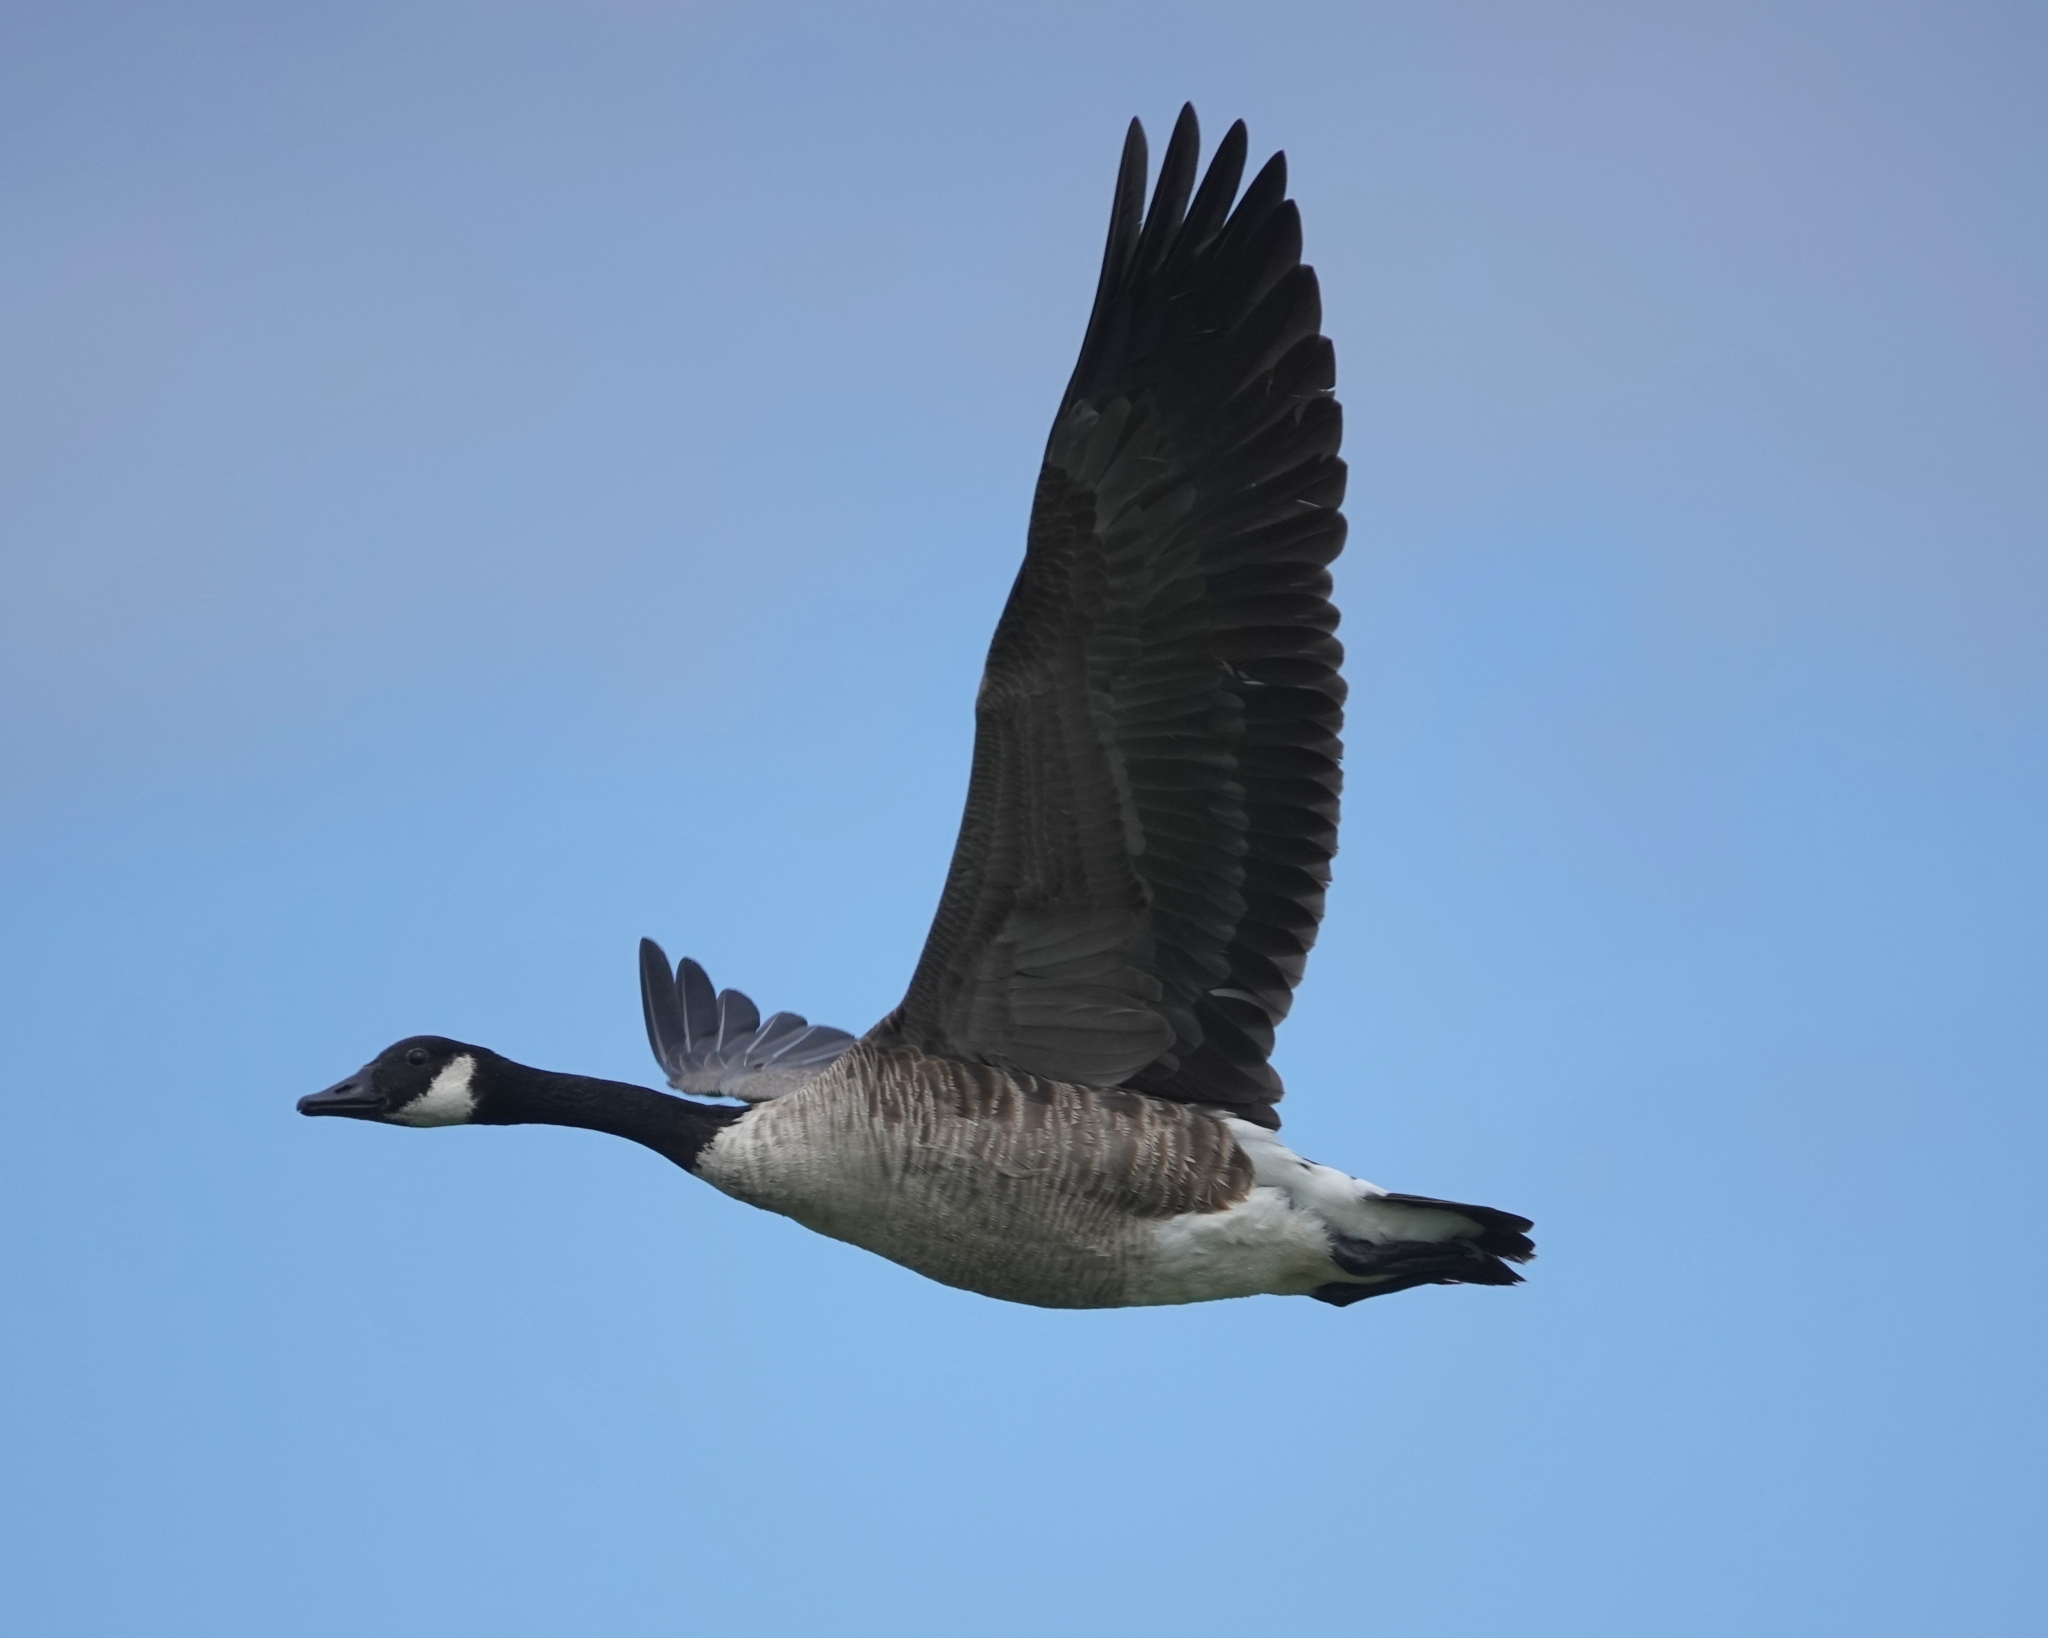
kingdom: Animalia
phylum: Chordata
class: Aves
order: Anseriformes
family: Anatidae
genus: Branta
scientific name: Branta canadensis
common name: Canada goose
